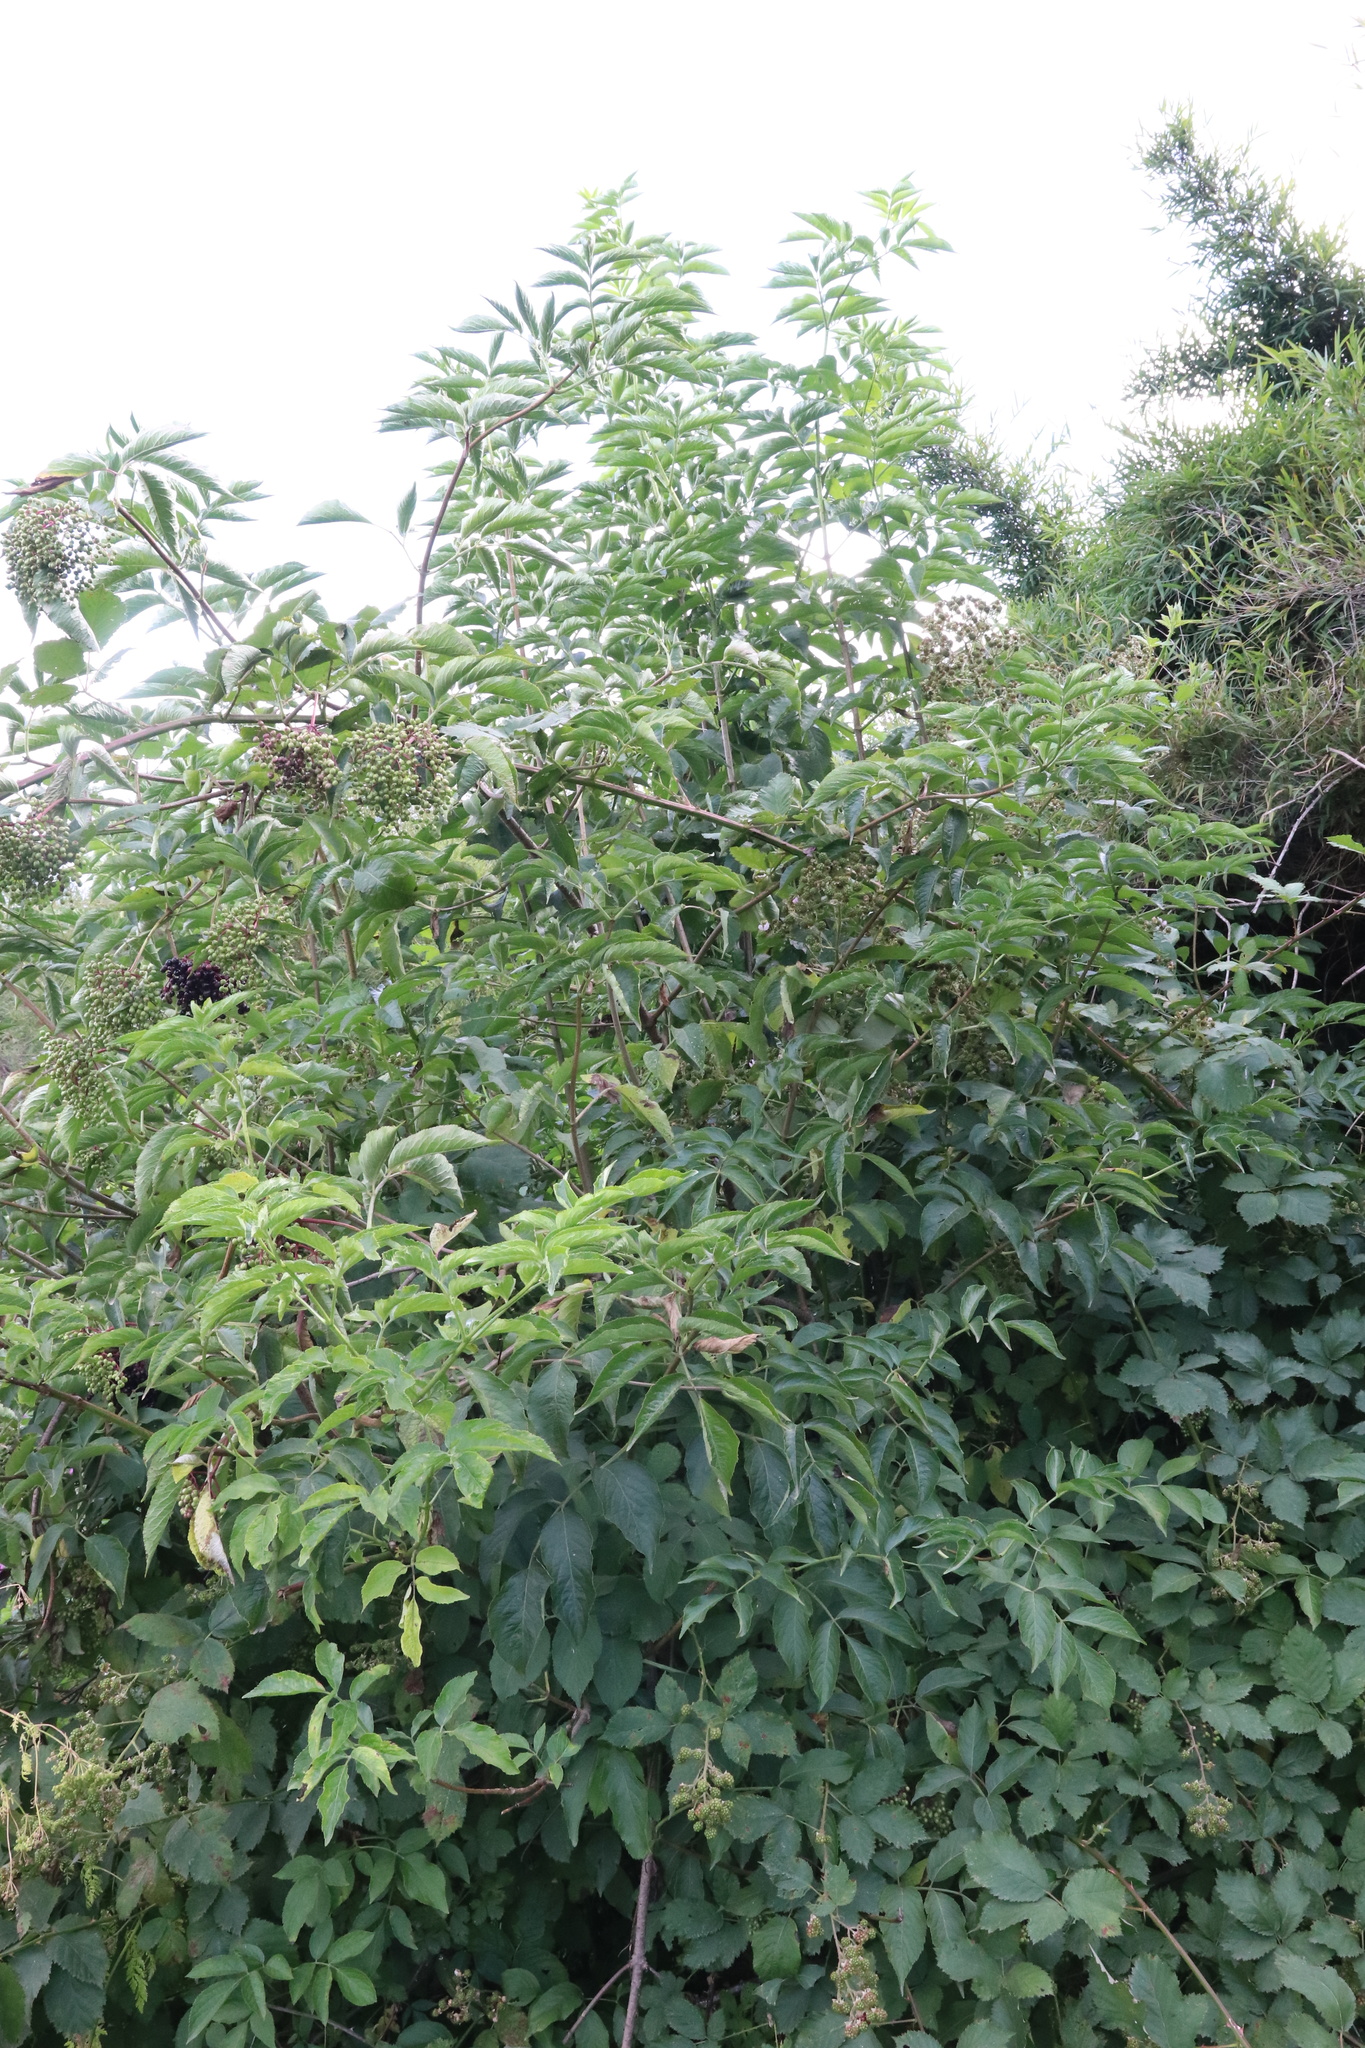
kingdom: Plantae
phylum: Tracheophyta
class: Magnoliopsida
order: Dipsacales
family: Viburnaceae
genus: Sambucus
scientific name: Sambucus nigra
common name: Elder
